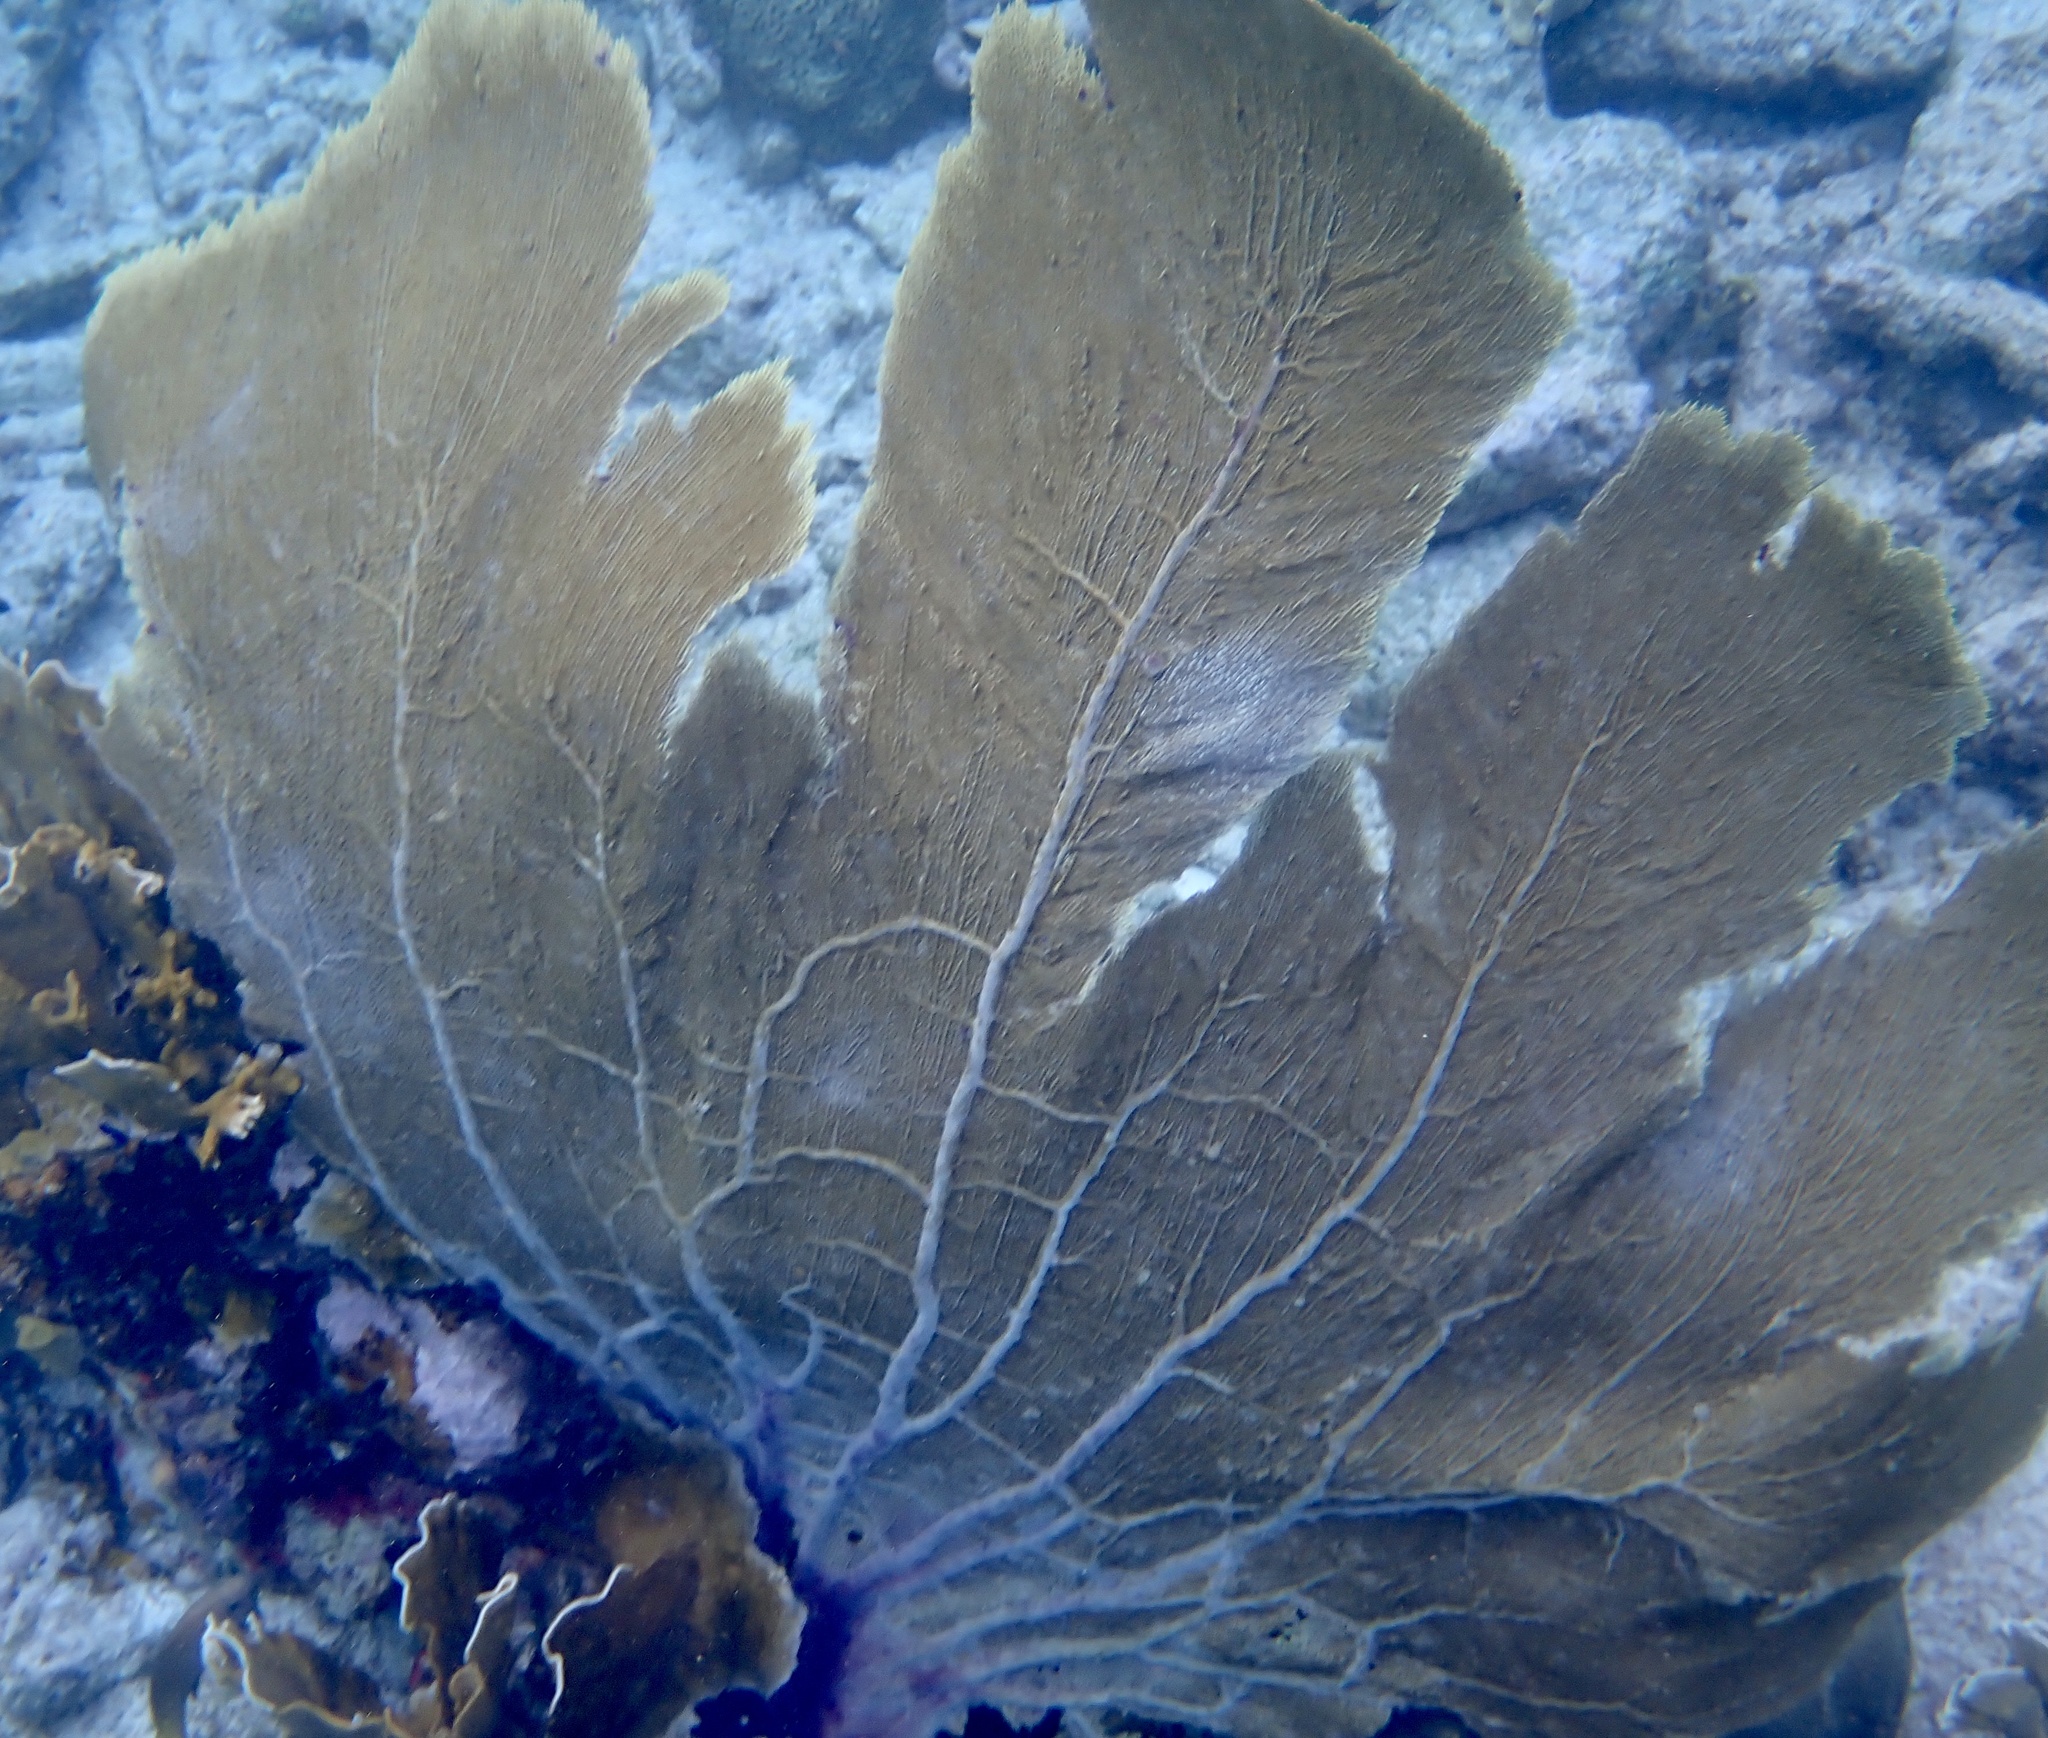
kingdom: Animalia
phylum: Cnidaria
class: Anthozoa
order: Malacalcyonacea
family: Gorgoniidae
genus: Gorgonia
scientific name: Gorgonia ventalina
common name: Common sea fan
